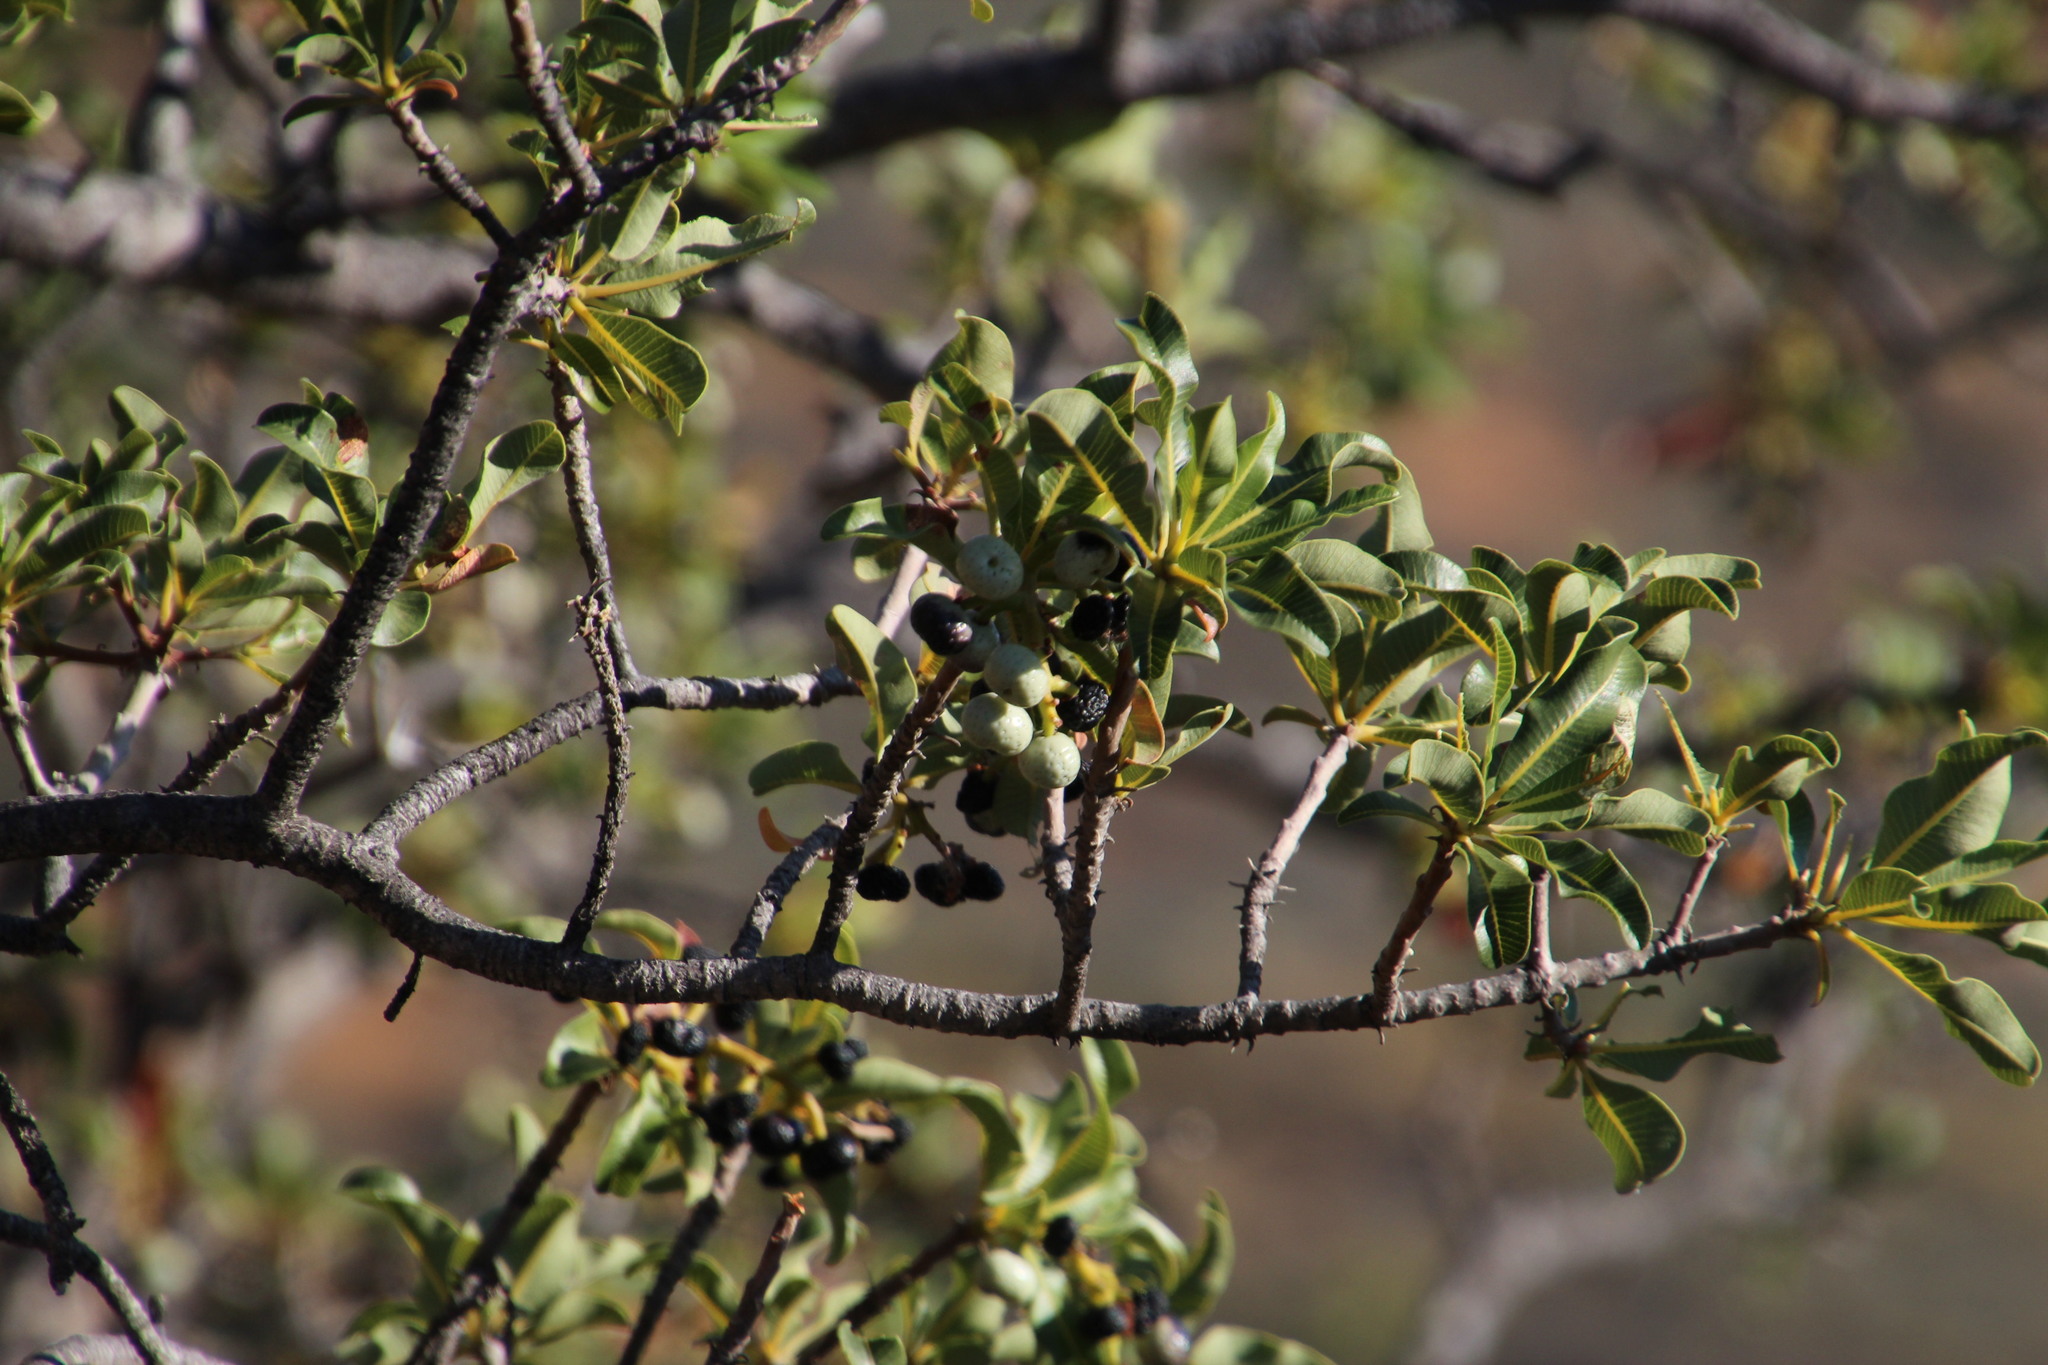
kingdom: Plantae
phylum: Tracheophyta
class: Magnoliopsida
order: Sapindales
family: Anacardiaceae
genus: Ozoroa
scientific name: Ozoroa dispar
